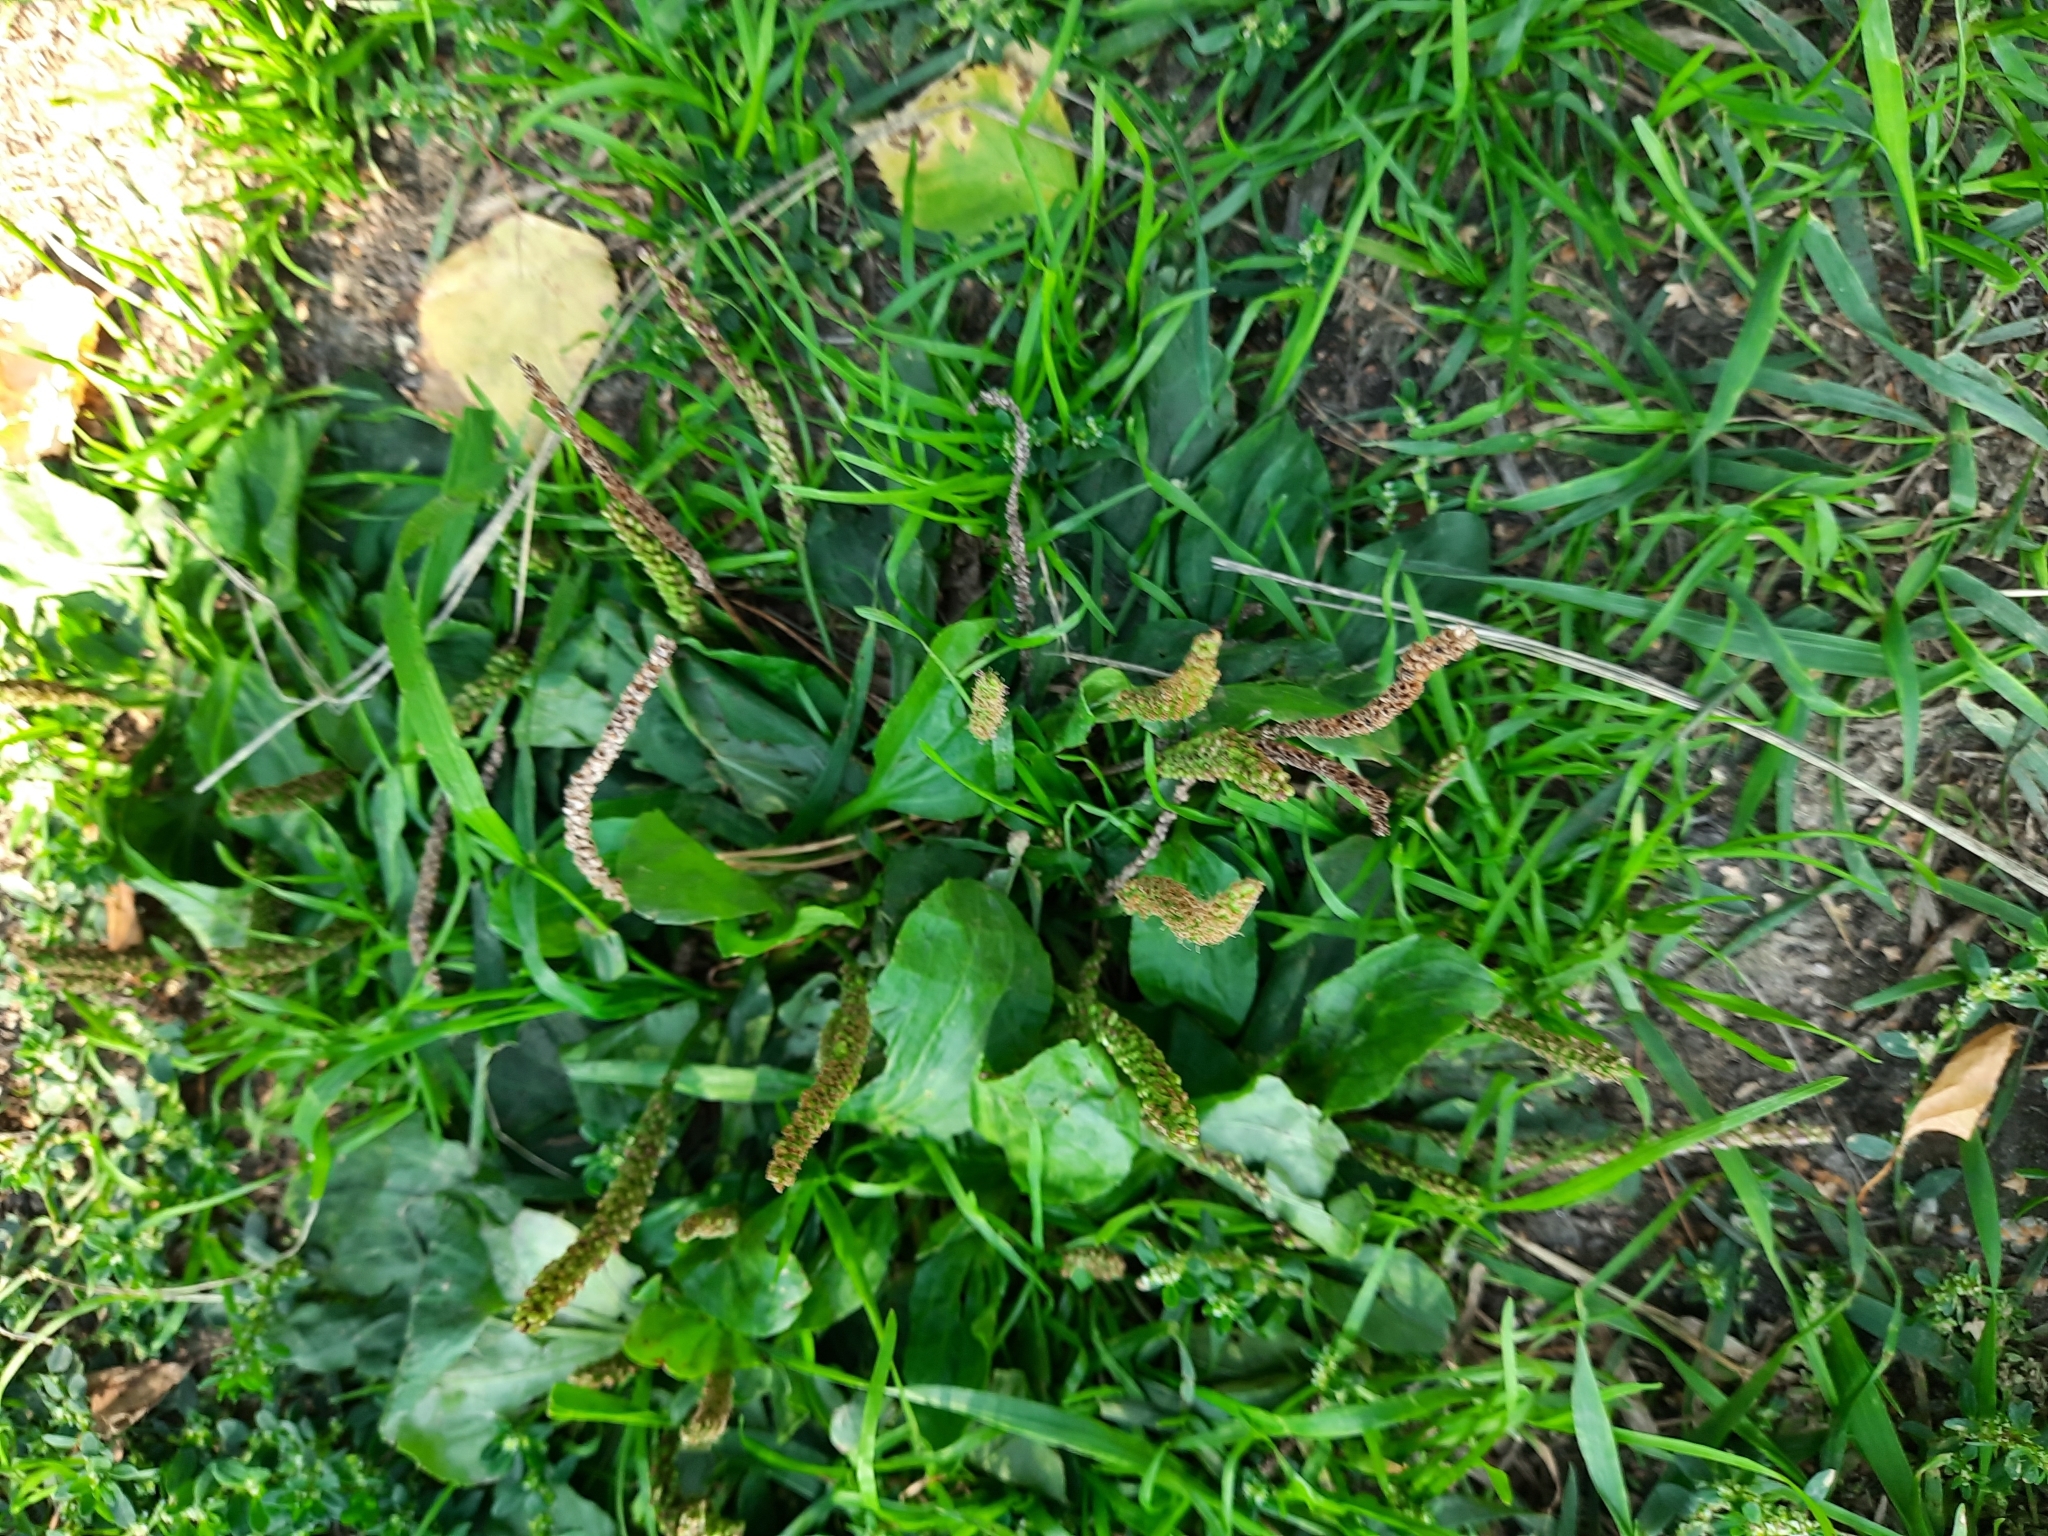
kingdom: Plantae
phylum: Tracheophyta
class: Magnoliopsida
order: Lamiales
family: Plantaginaceae
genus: Plantago
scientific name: Plantago major
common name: Common plantain
